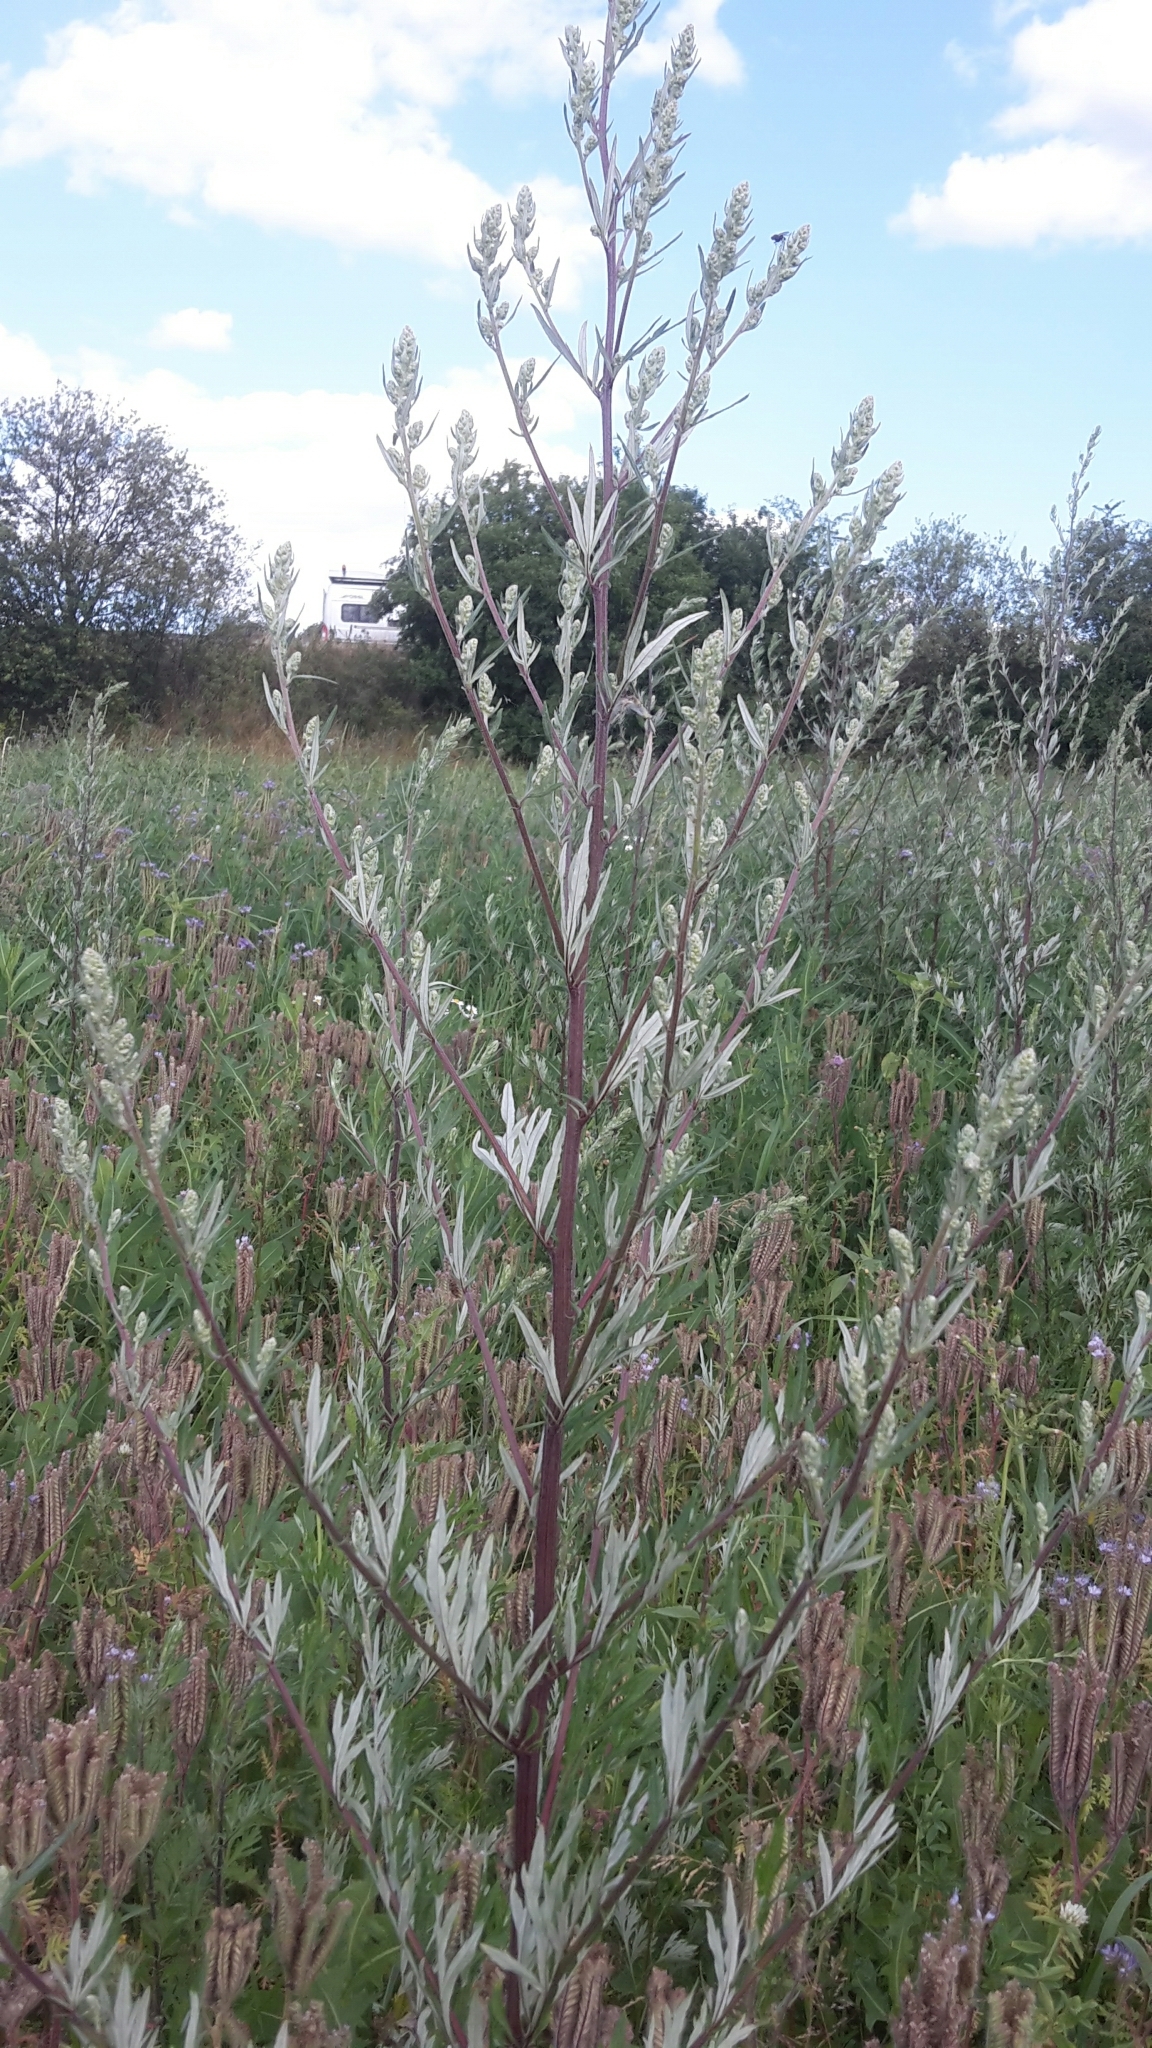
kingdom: Plantae
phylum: Tracheophyta
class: Magnoliopsida
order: Asterales
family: Asteraceae
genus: Artemisia
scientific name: Artemisia vulgaris
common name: Mugwort
